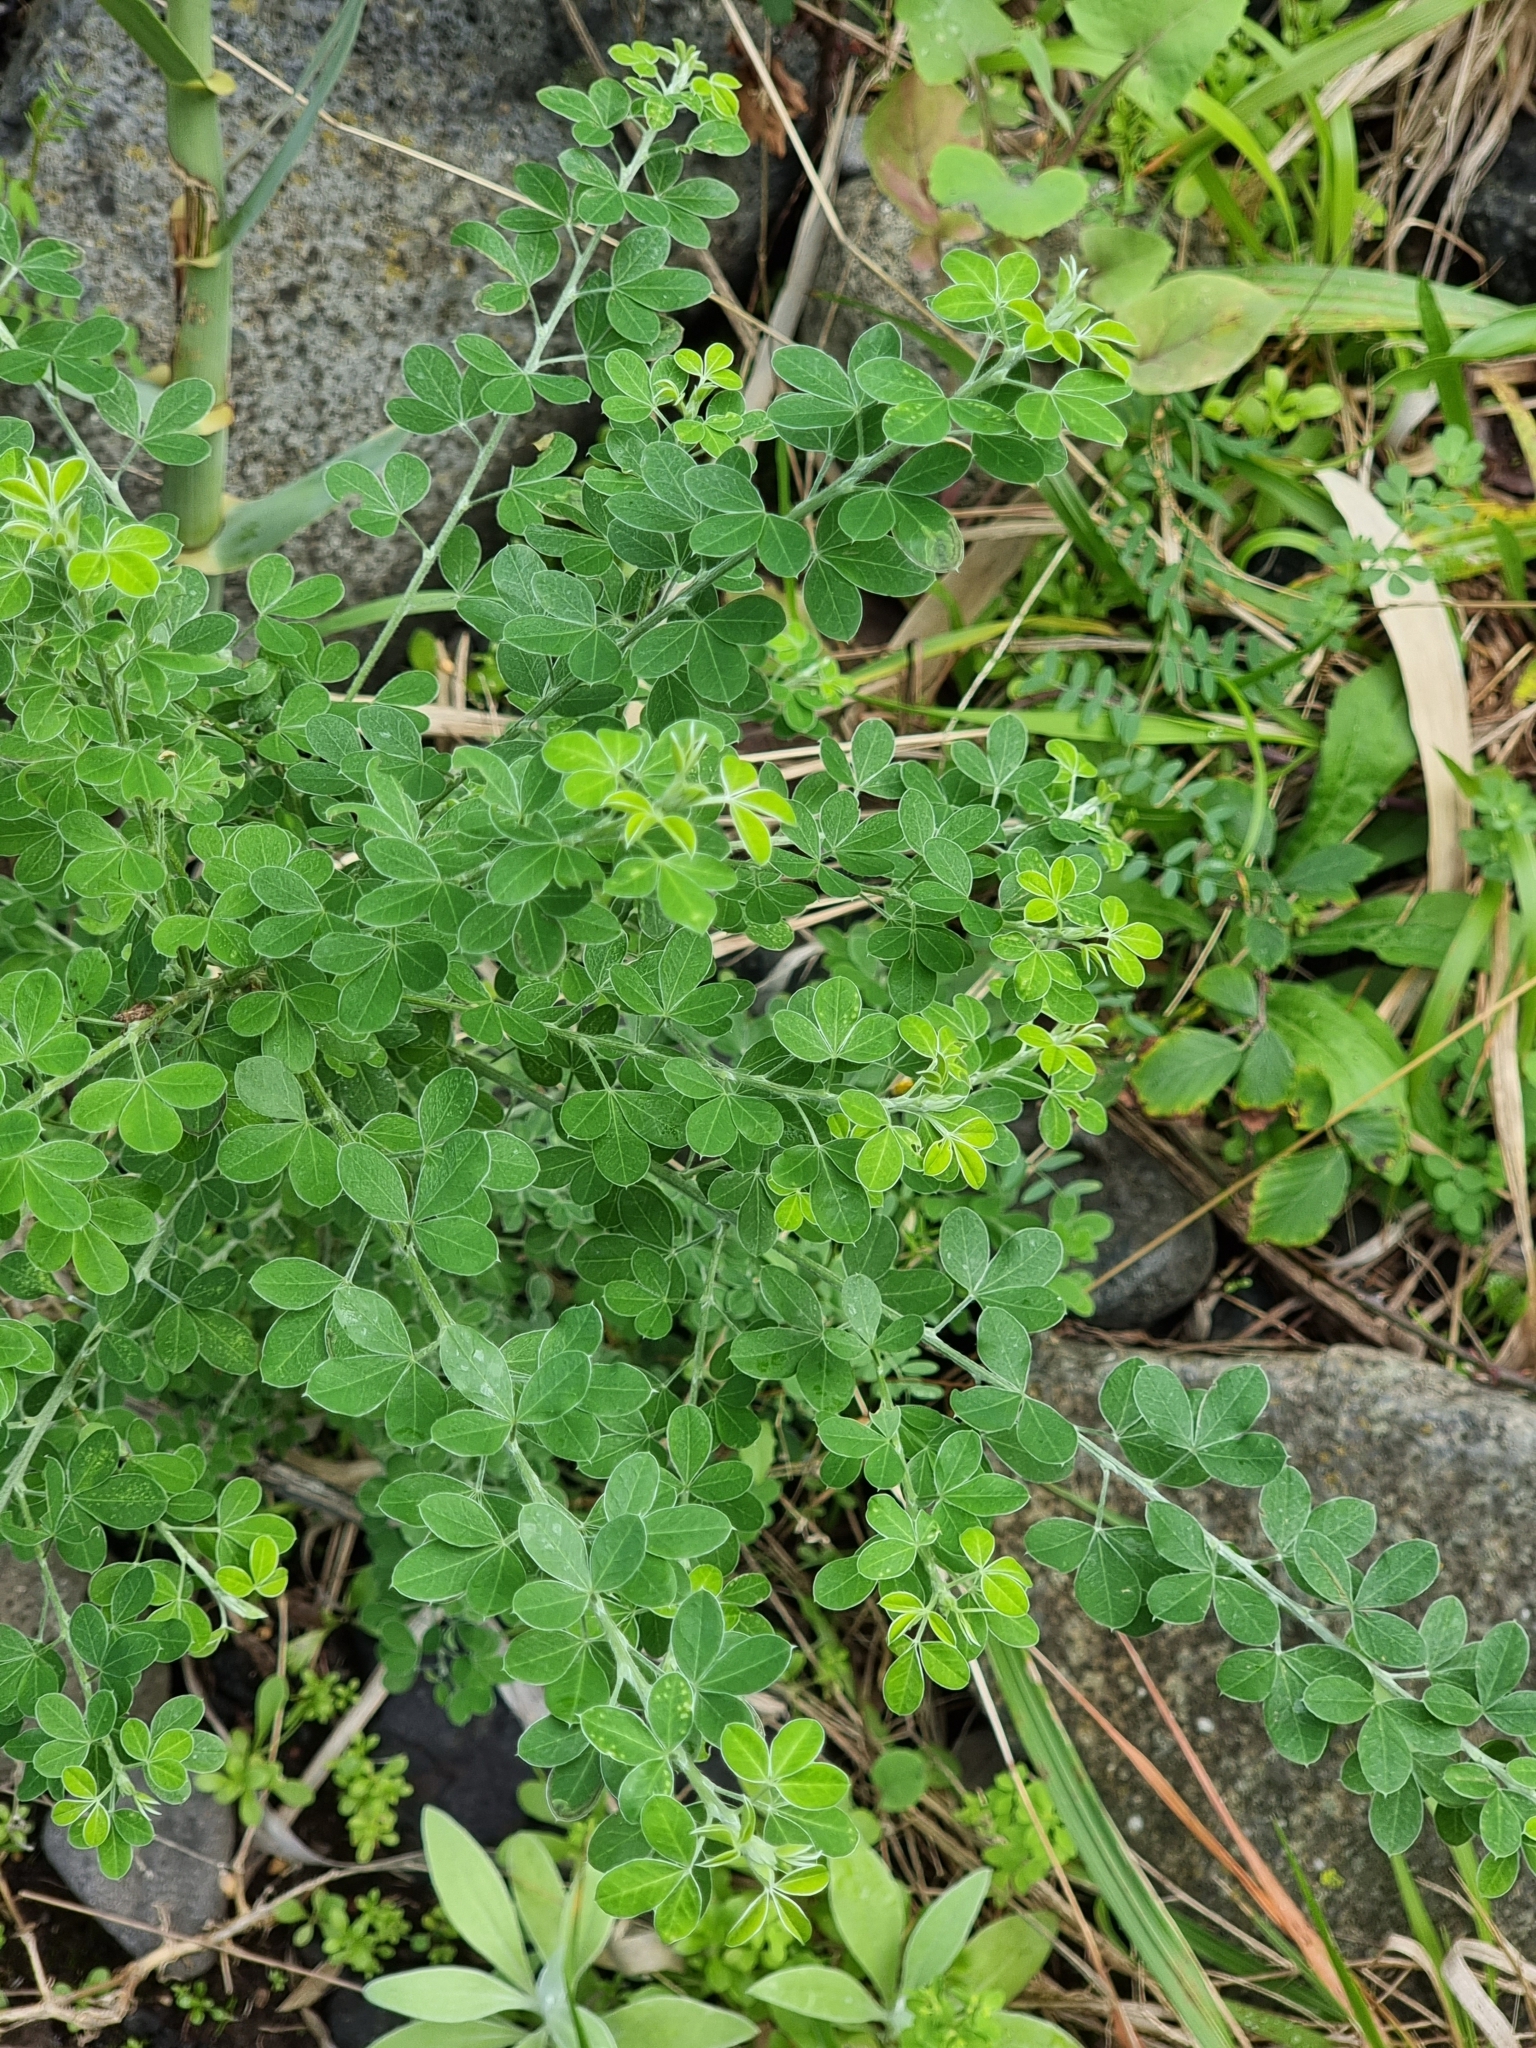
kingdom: Plantae
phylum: Tracheophyta
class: Magnoliopsida
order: Fabales
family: Fabaceae
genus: Genista
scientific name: Genista maderensis
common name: Madeira dyer's greenweed
